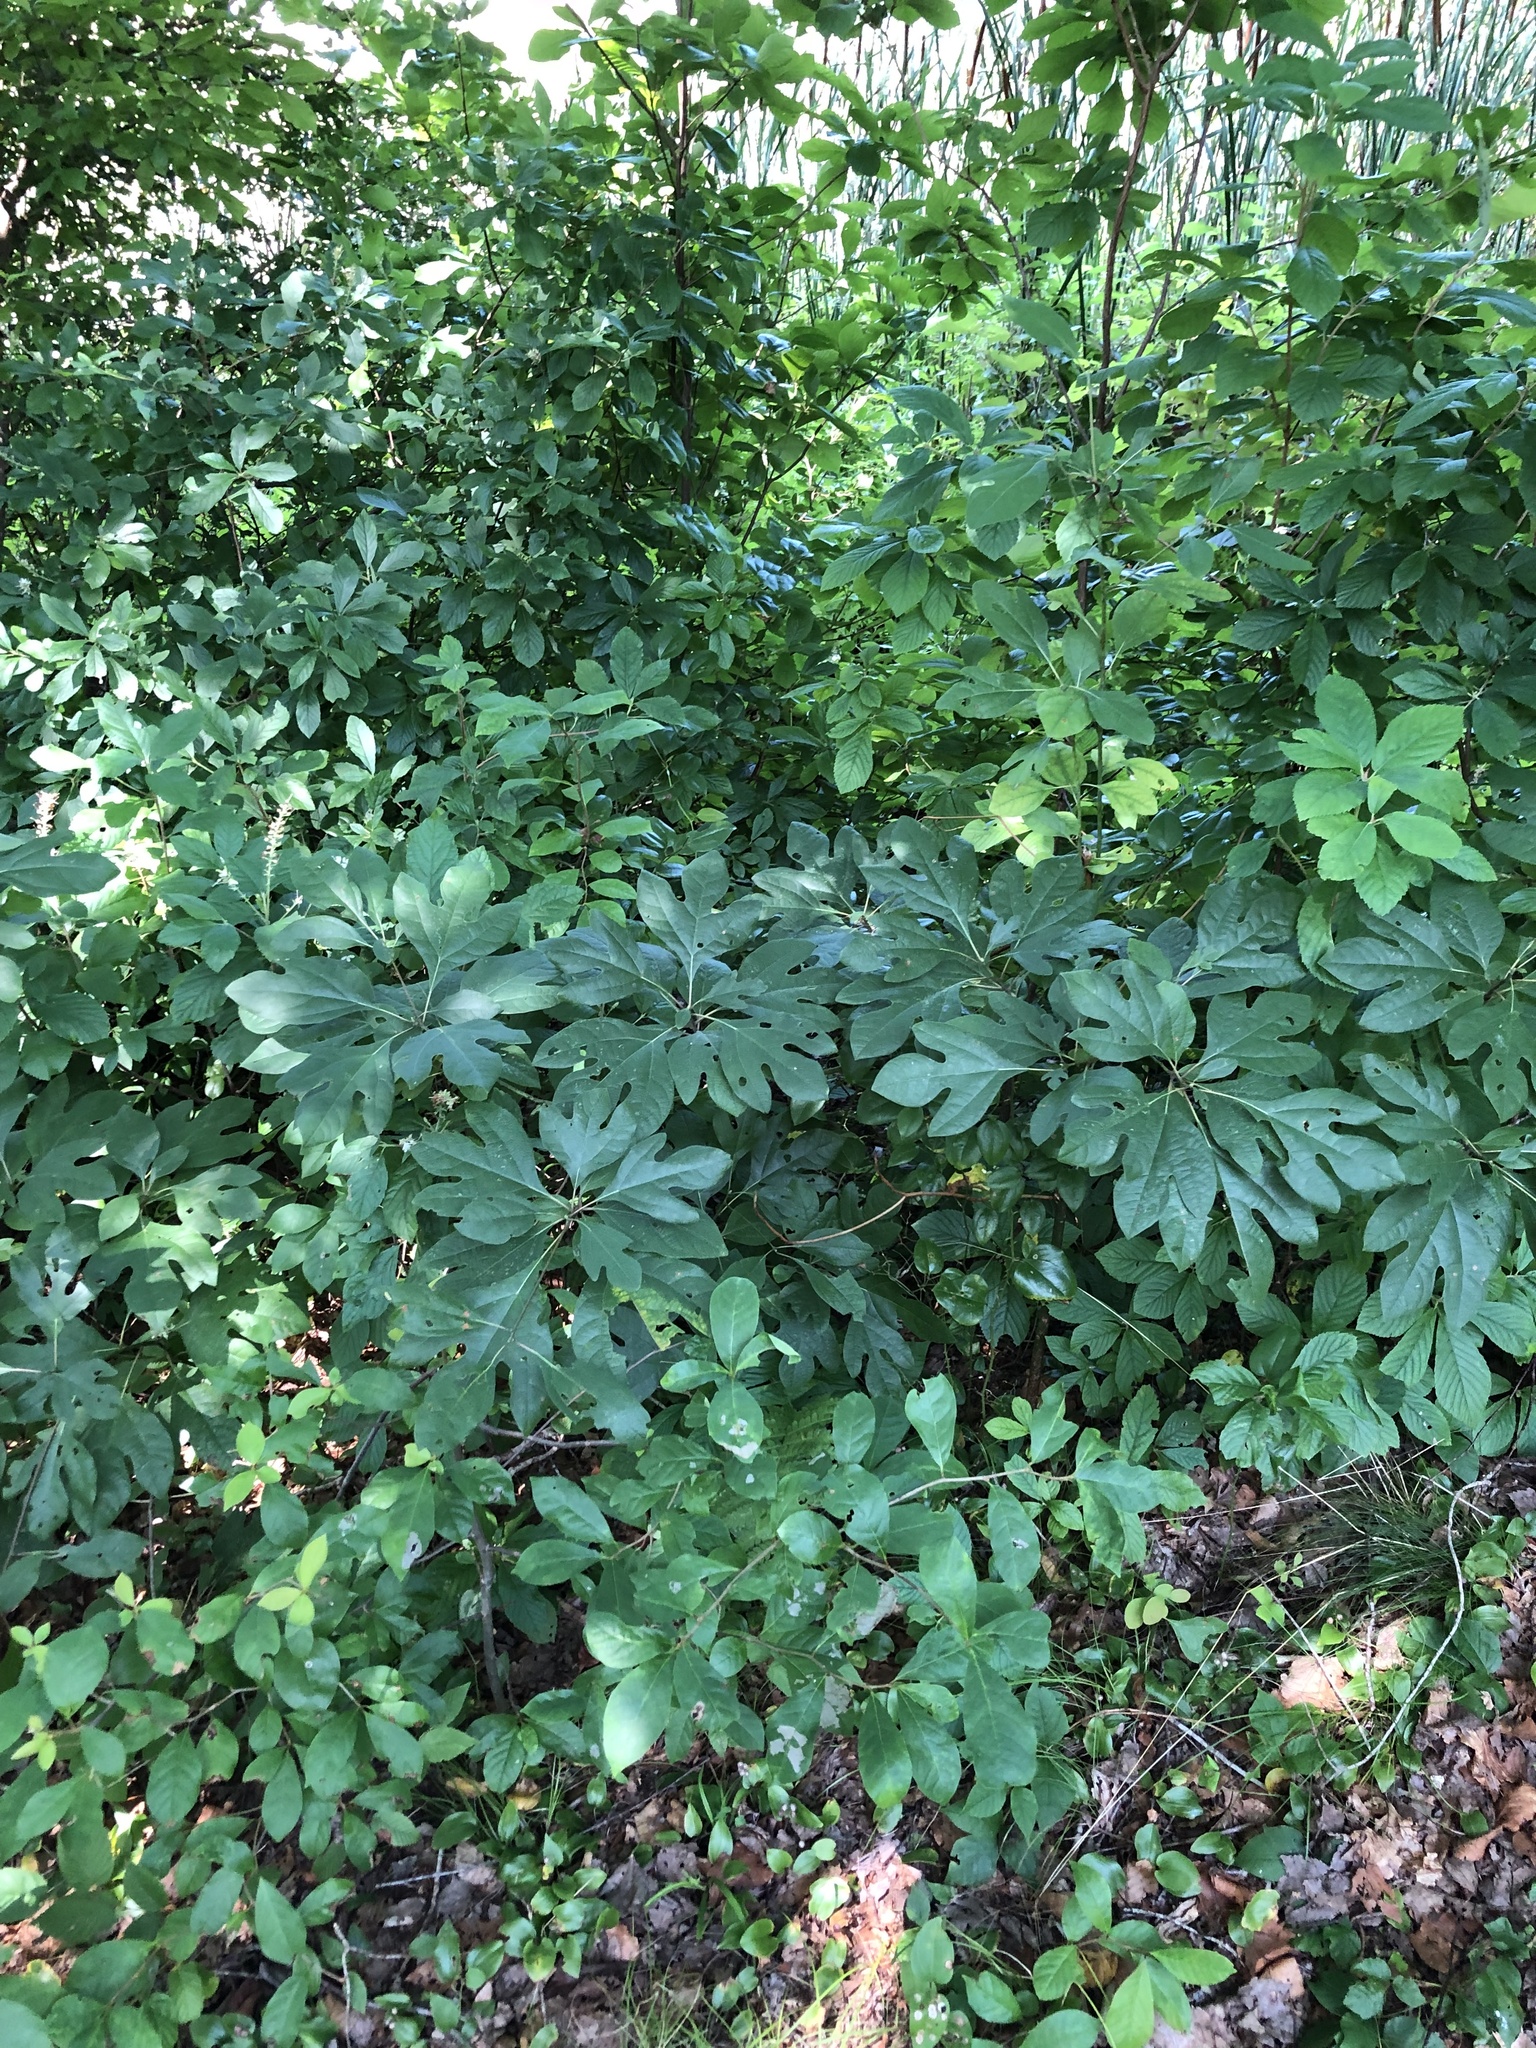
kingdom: Plantae
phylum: Tracheophyta
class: Magnoliopsida
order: Laurales
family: Lauraceae
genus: Sassafras
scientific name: Sassafras albidum
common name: Sassafras
